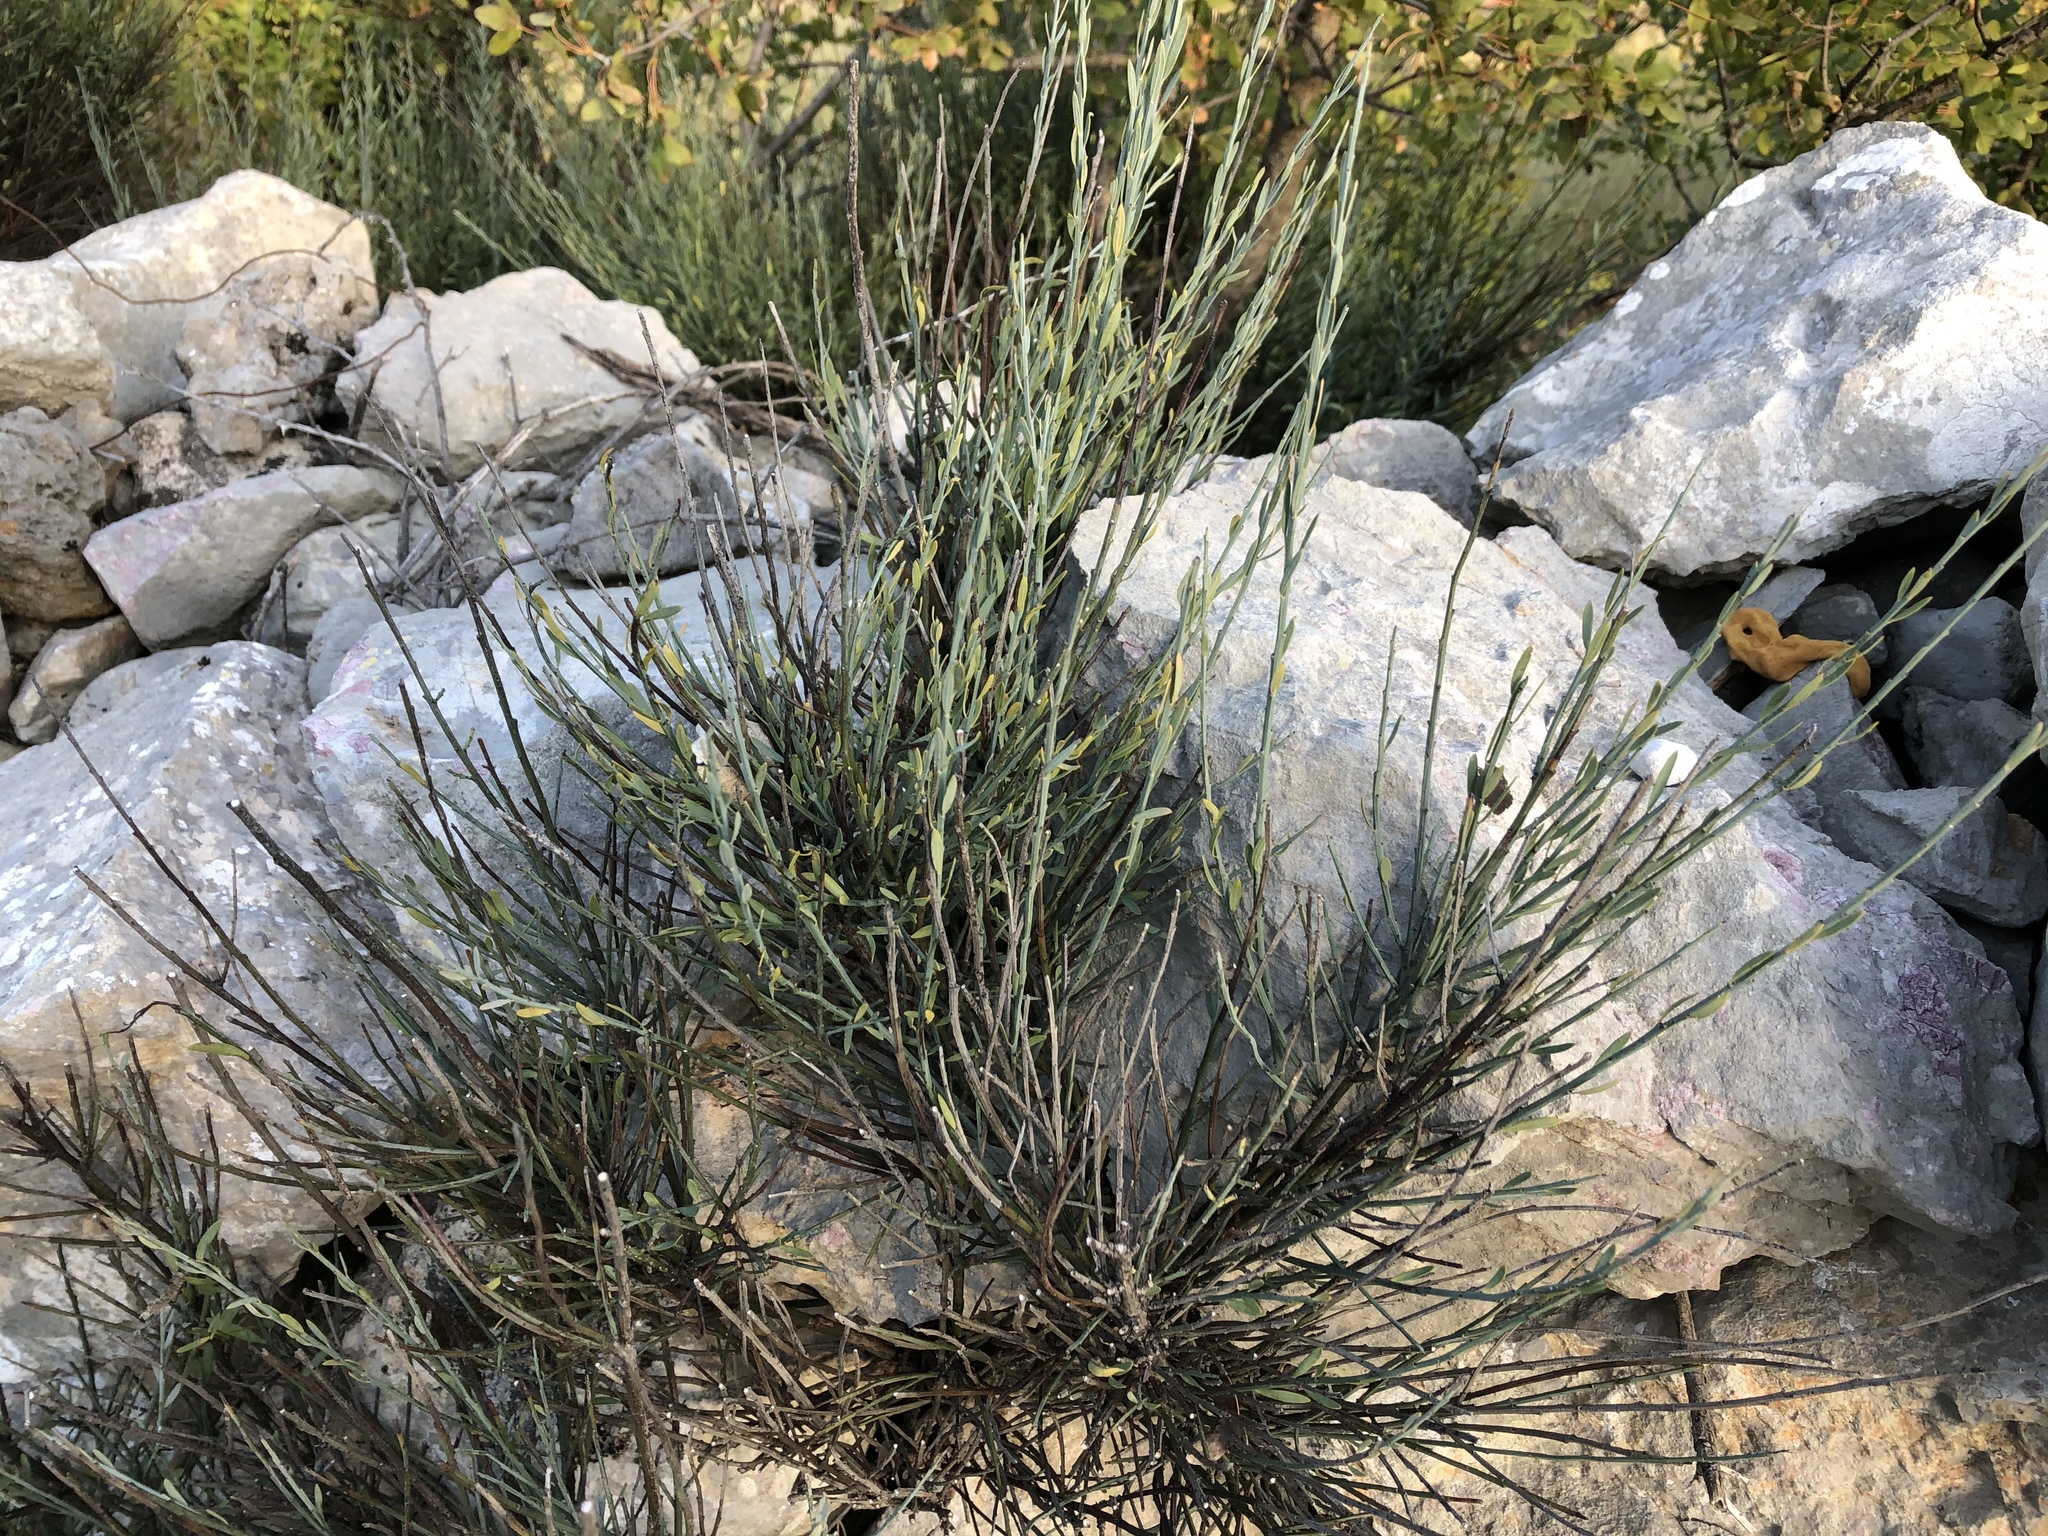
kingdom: Plantae
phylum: Tracheophyta
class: Magnoliopsida
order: Santalales
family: Santalaceae
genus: Osyris
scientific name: Osyris alba
